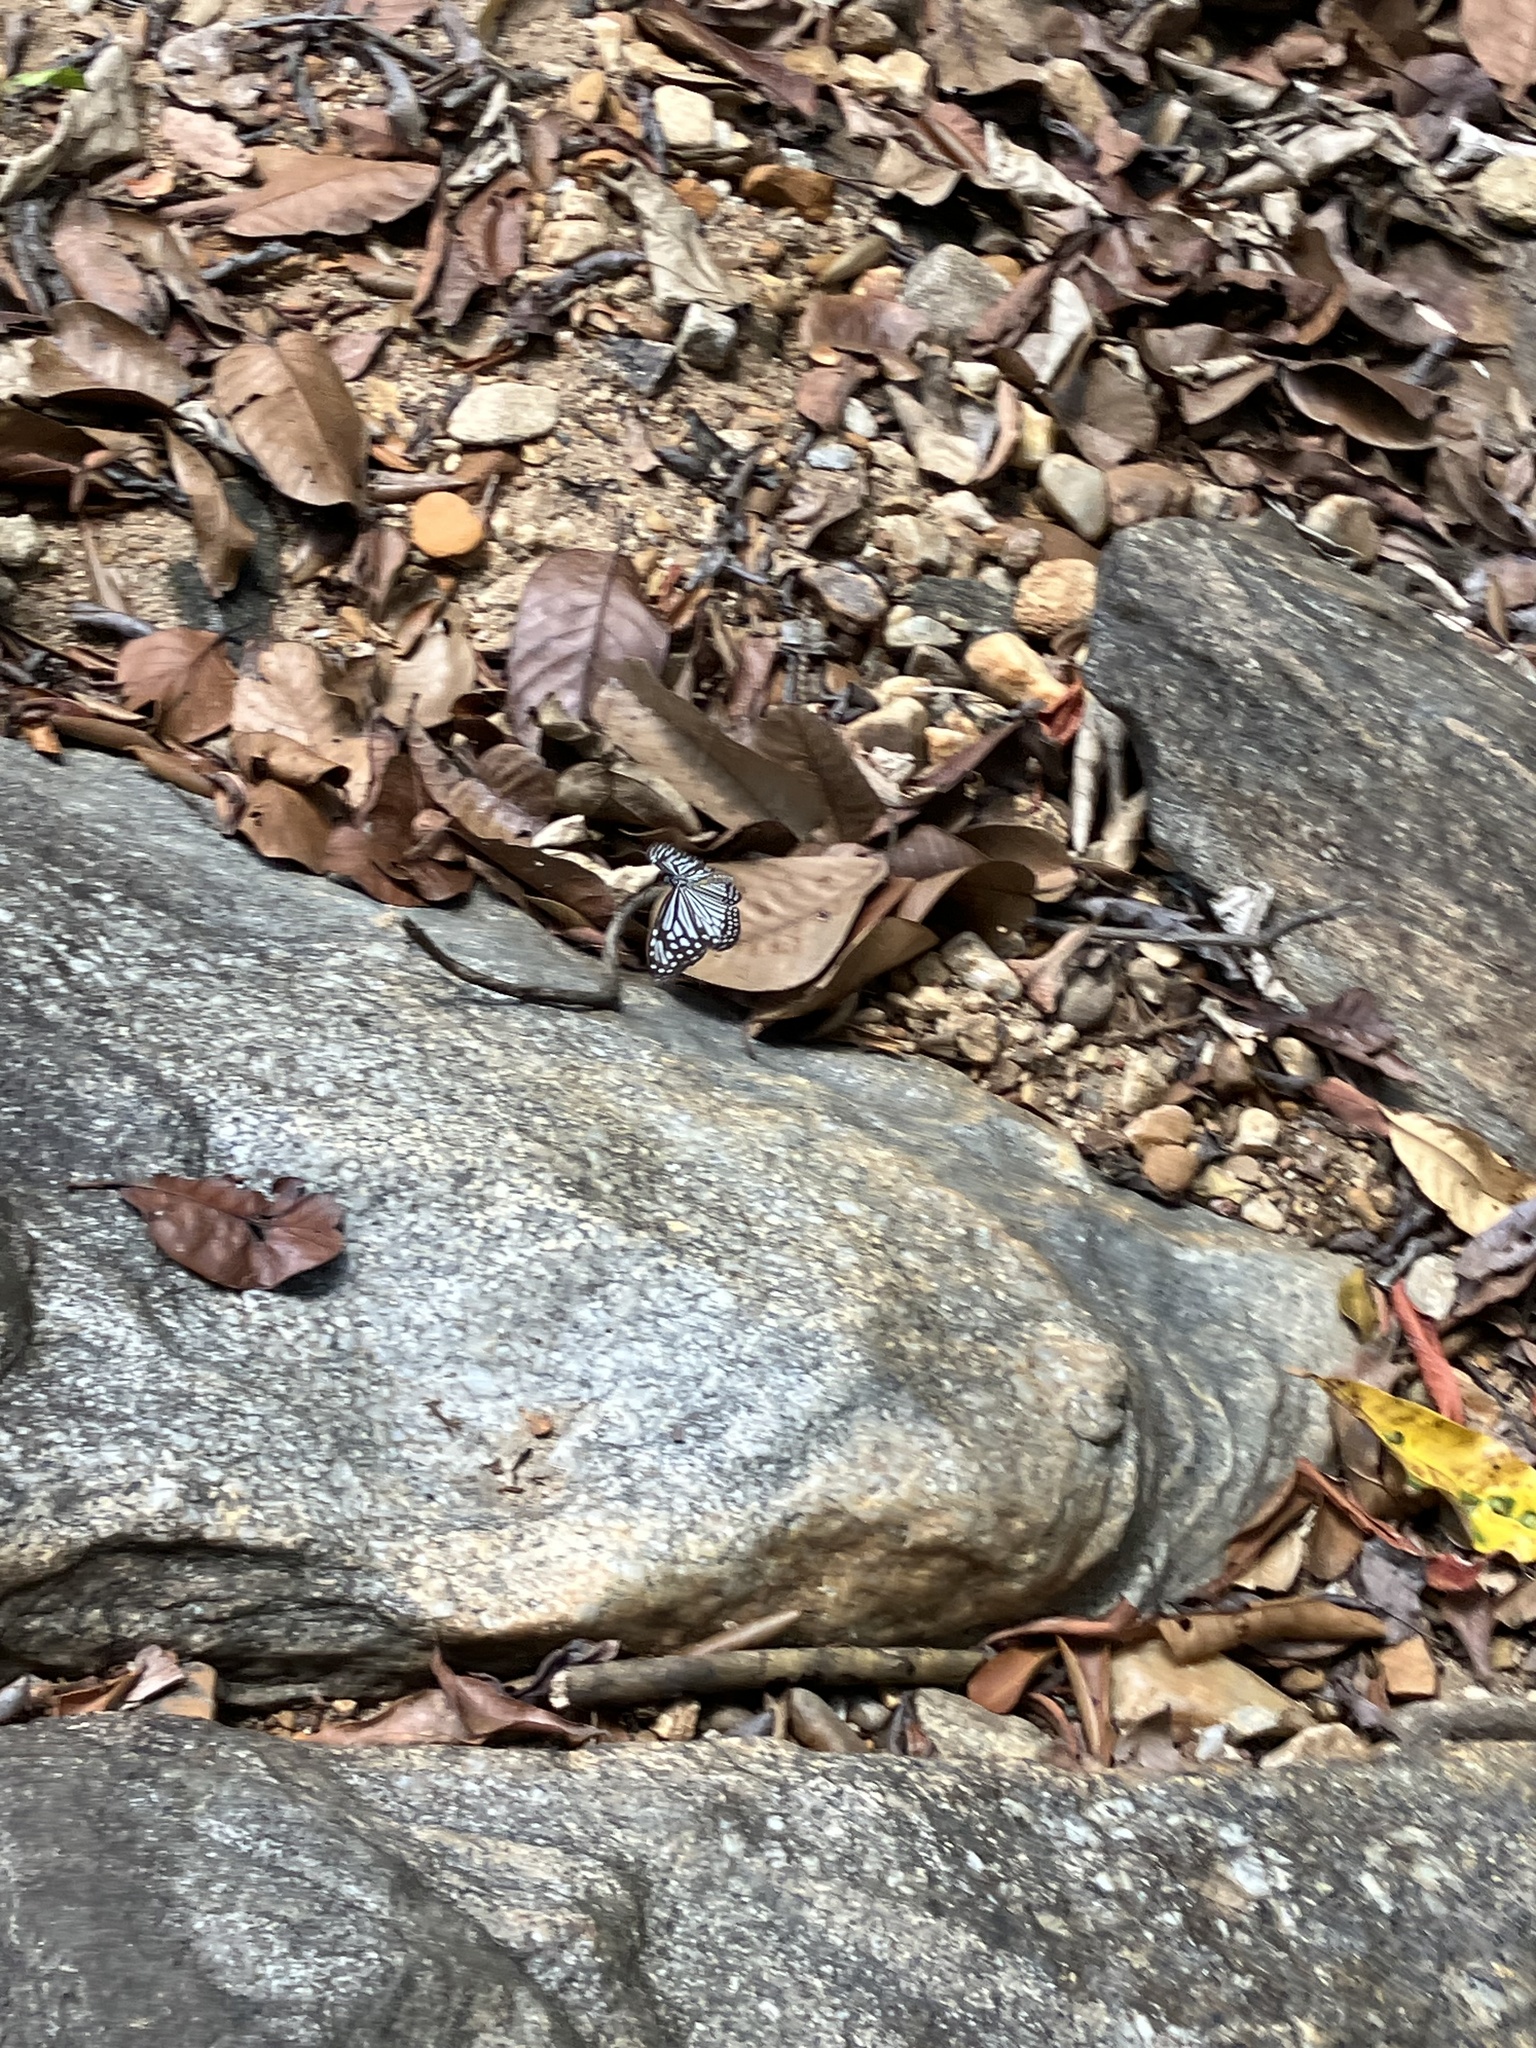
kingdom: Animalia
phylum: Arthropoda
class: Insecta
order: Lepidoptera
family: Nymphalidae
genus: Parantica
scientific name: Parantica aglea
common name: Glassy tiger
